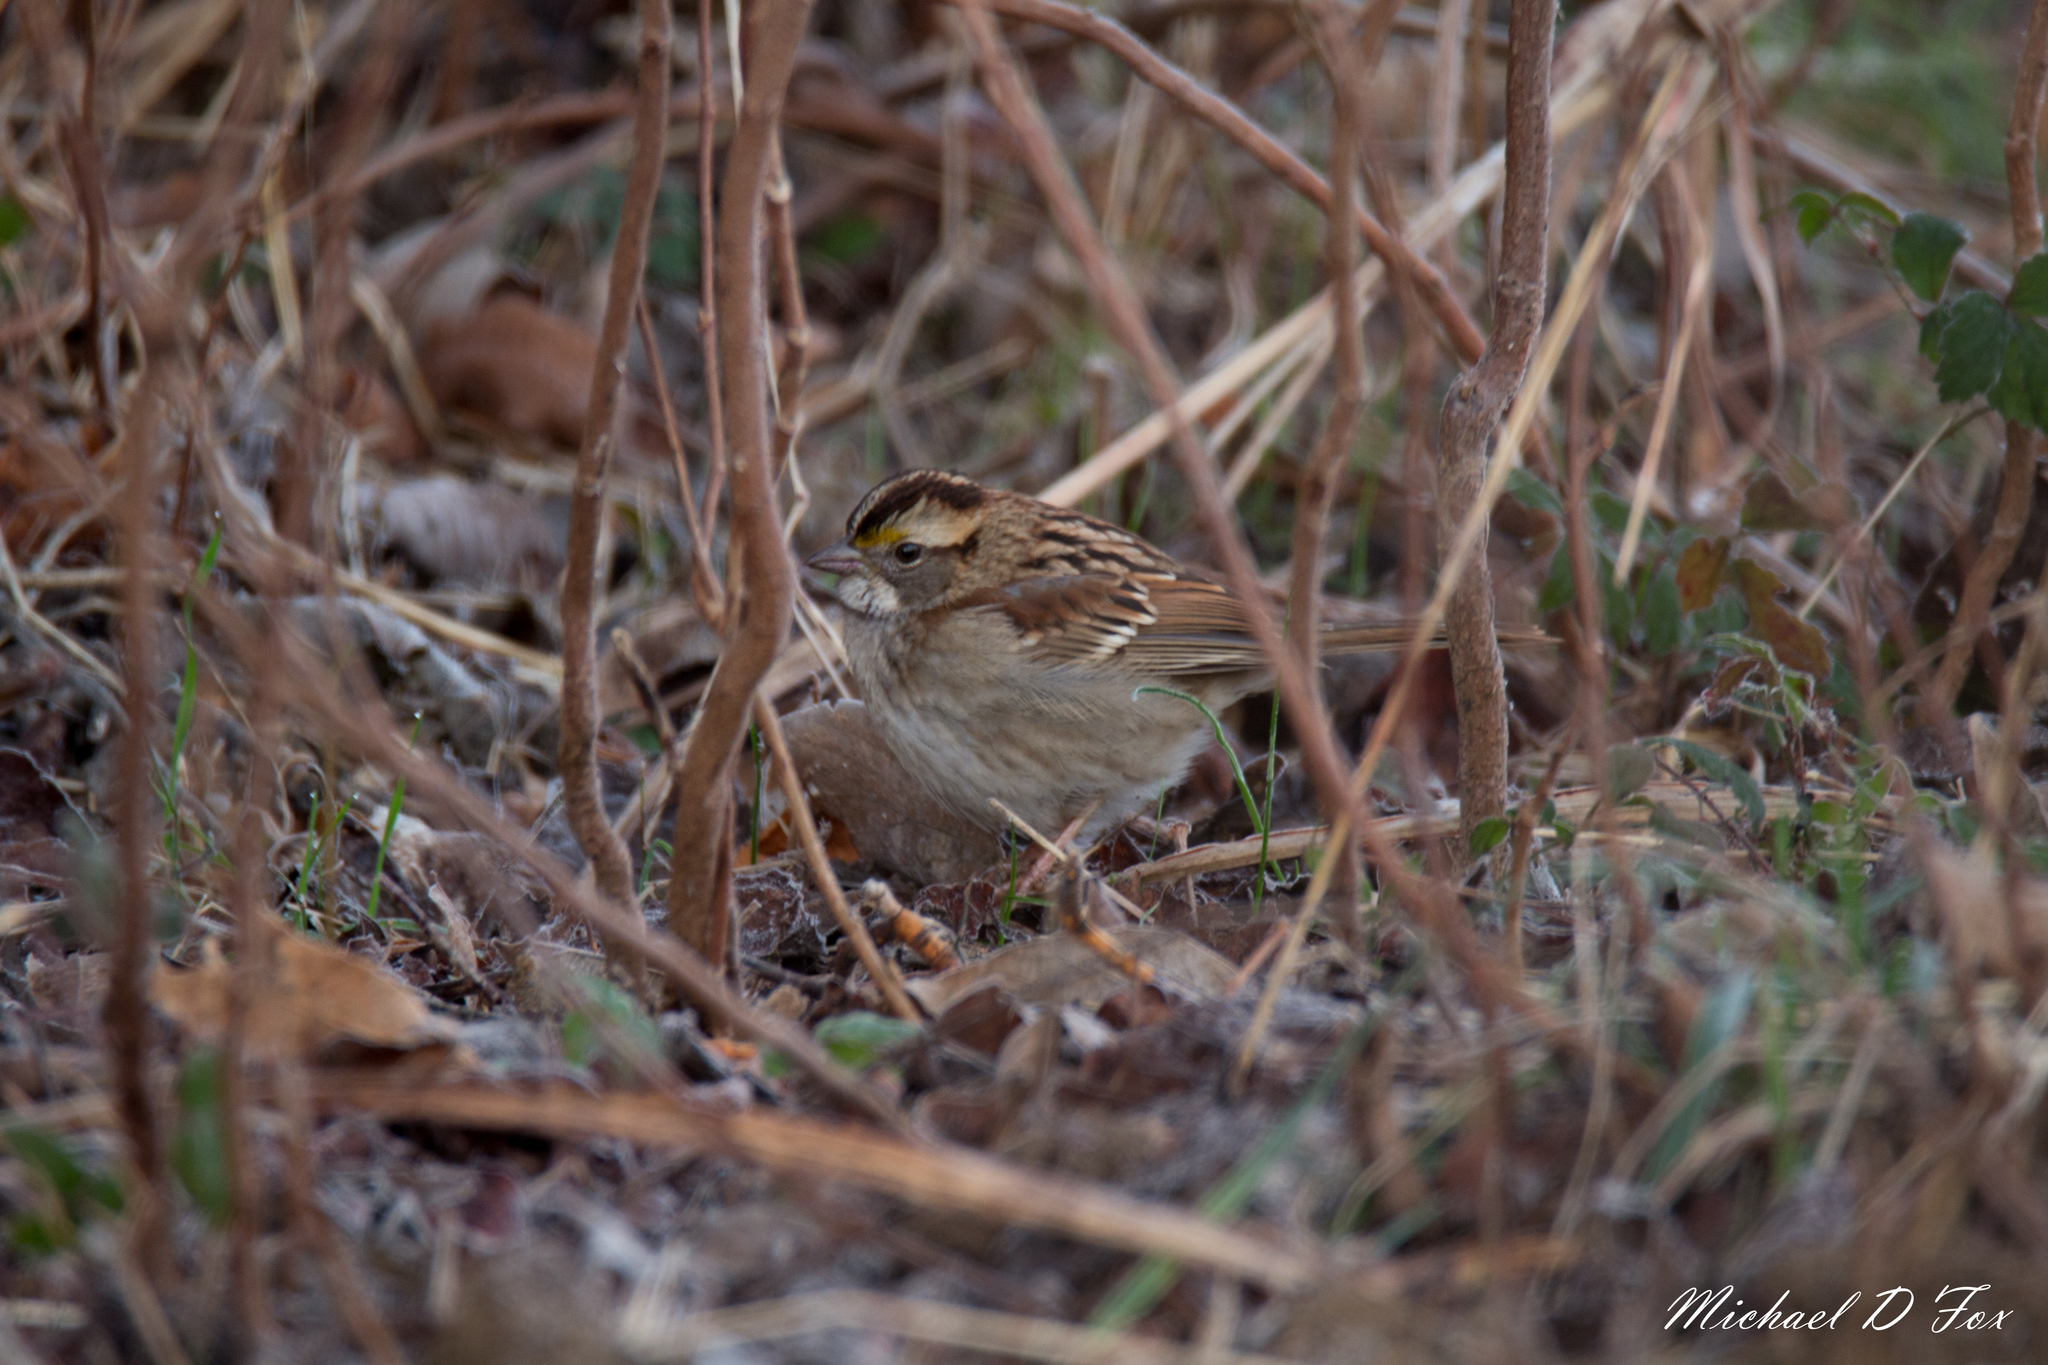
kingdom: Animalia
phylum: Chordata
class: Aves
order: Passeriformes
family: Passerellidae
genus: Zonotrichia
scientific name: Zonotrichia albicollis
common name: White-throated sparrow
